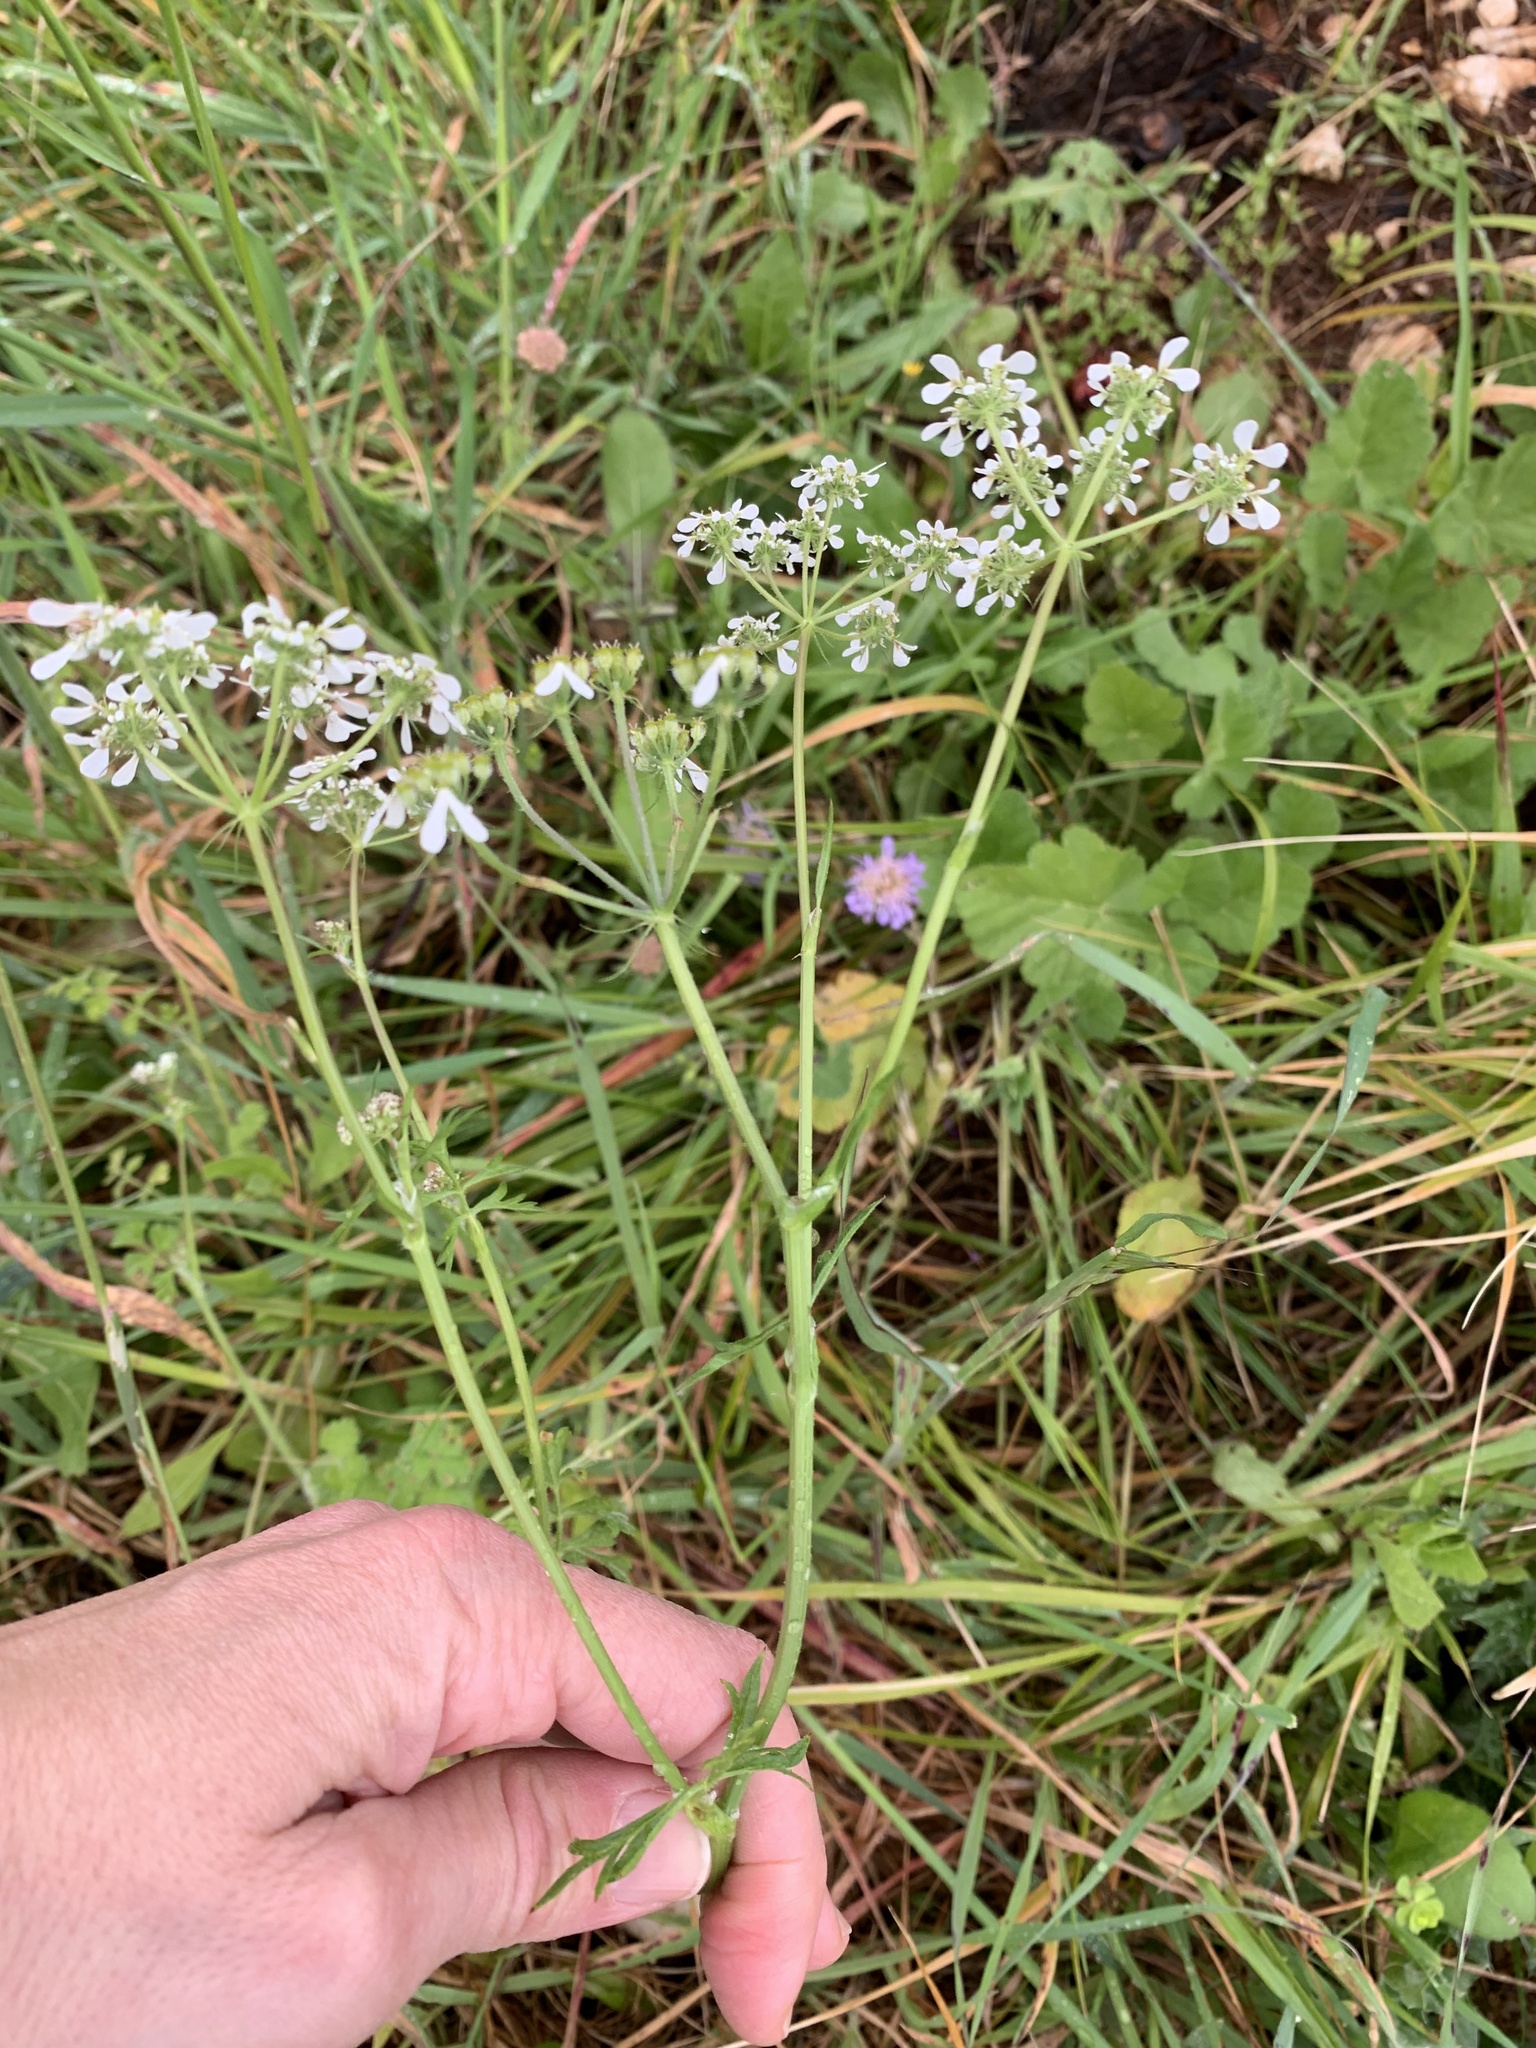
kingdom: Plantae
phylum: Tracheophyta
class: Magnoliopsida
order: Apiales
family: Apiaceae
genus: Tordylium
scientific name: Tordylium apulum
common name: Mediterranean hartwort
